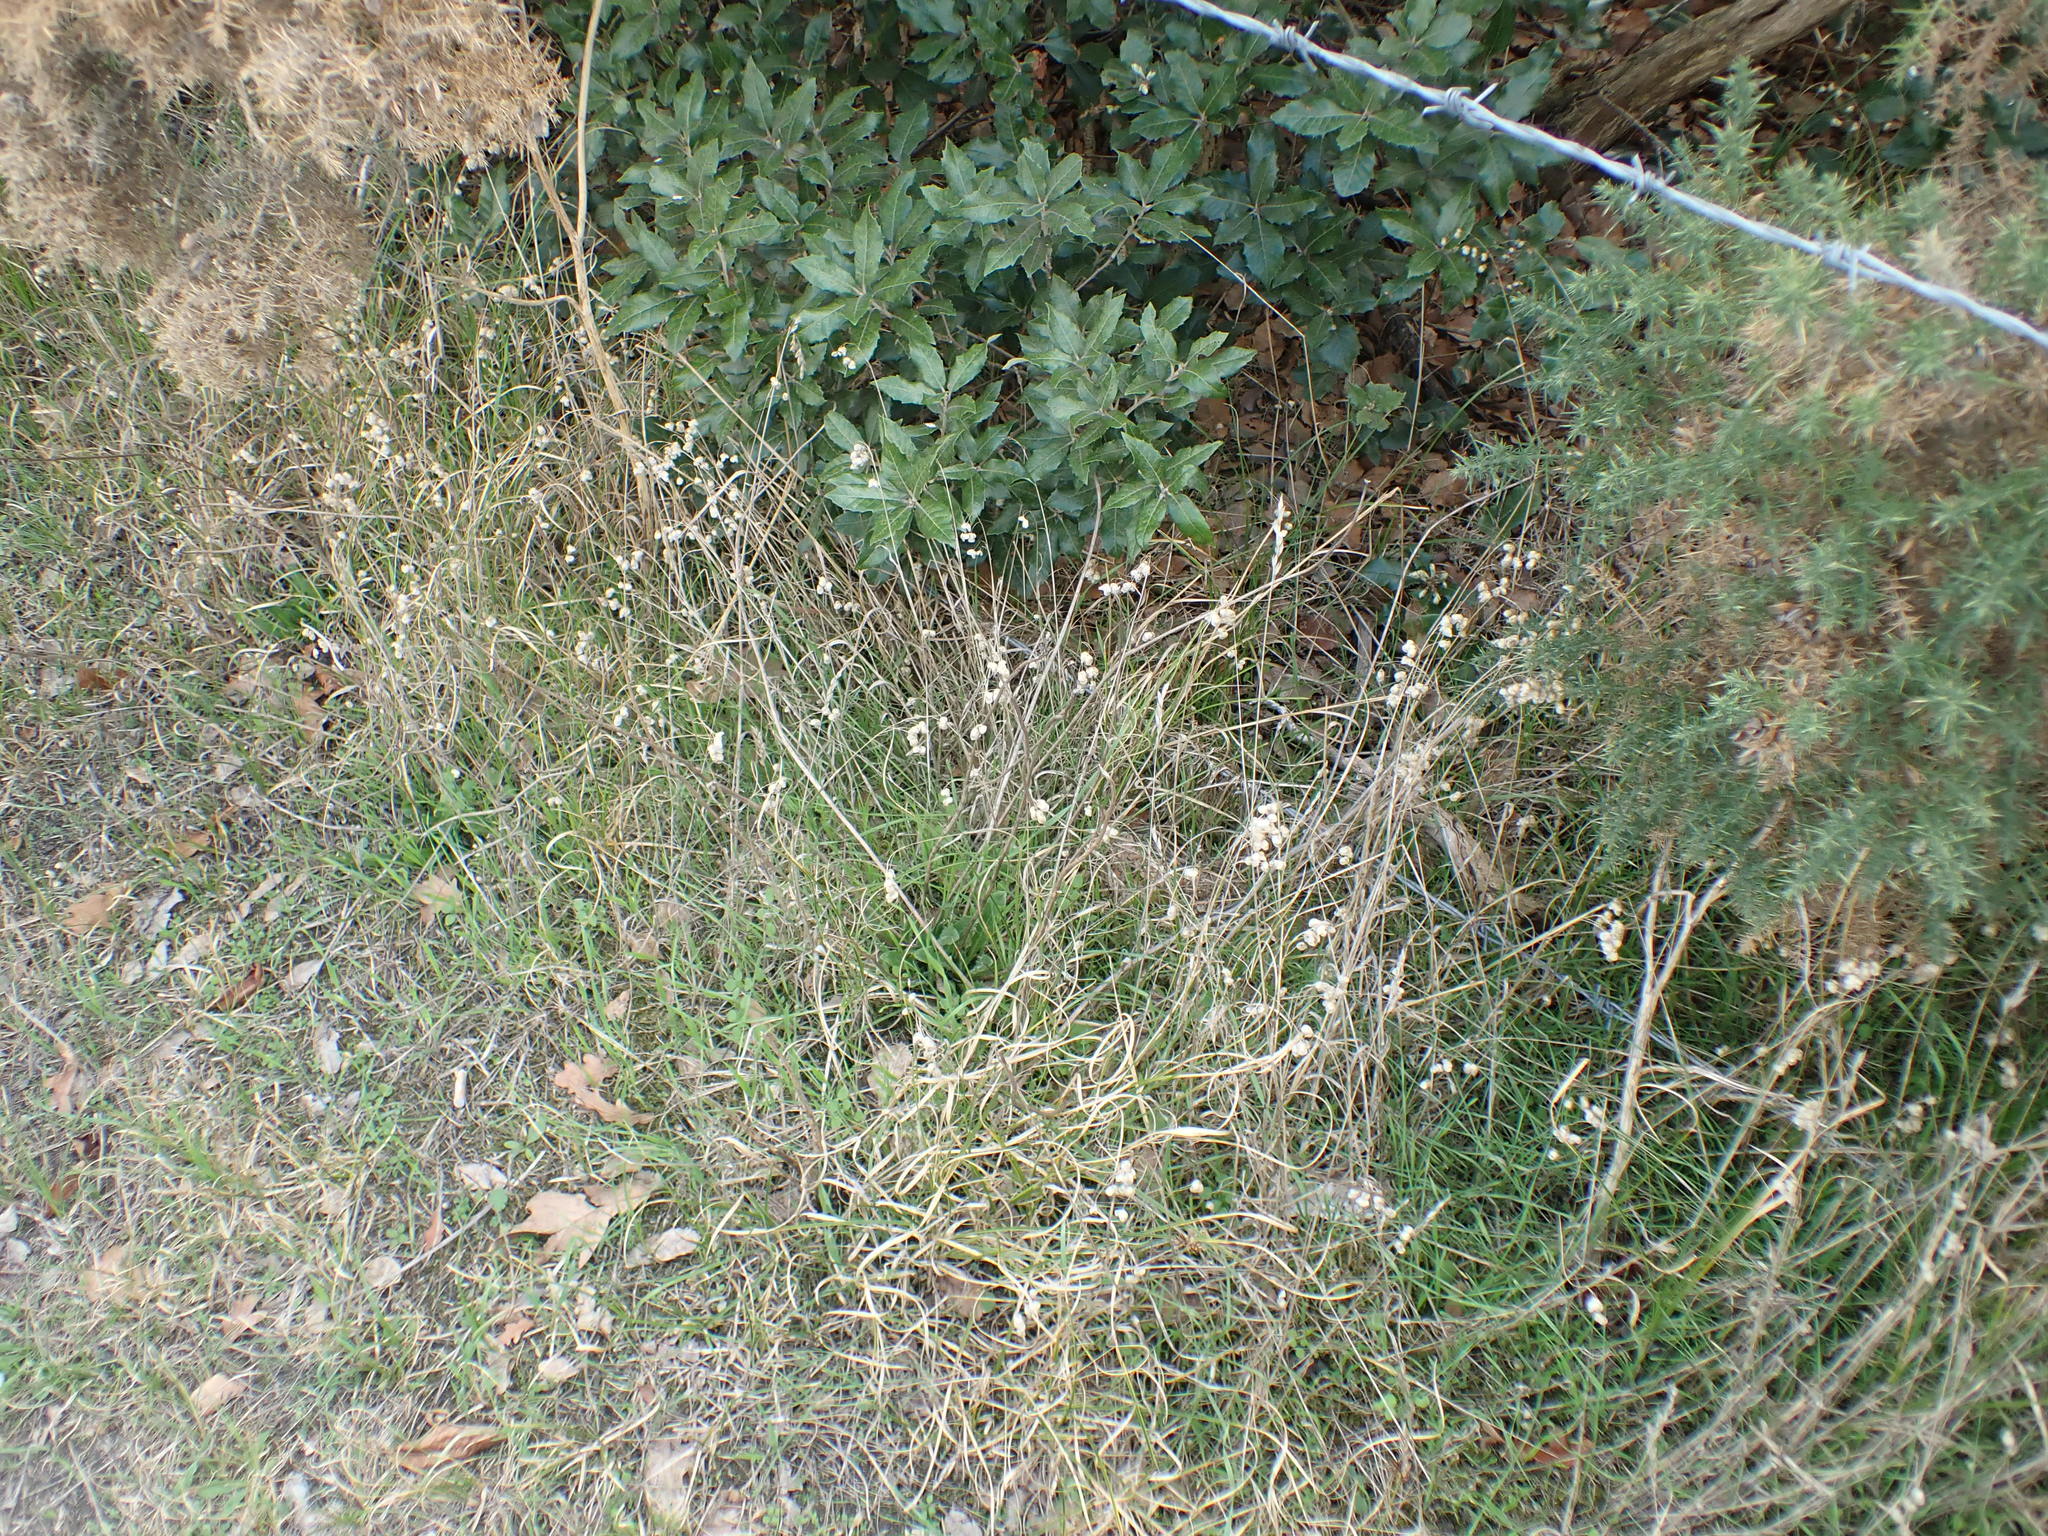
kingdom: Plantae
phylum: Tracheophyta
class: Liliopsida
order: Poales
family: Poaceae
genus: Briza
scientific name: Briza maxima
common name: Big quakinggrass
